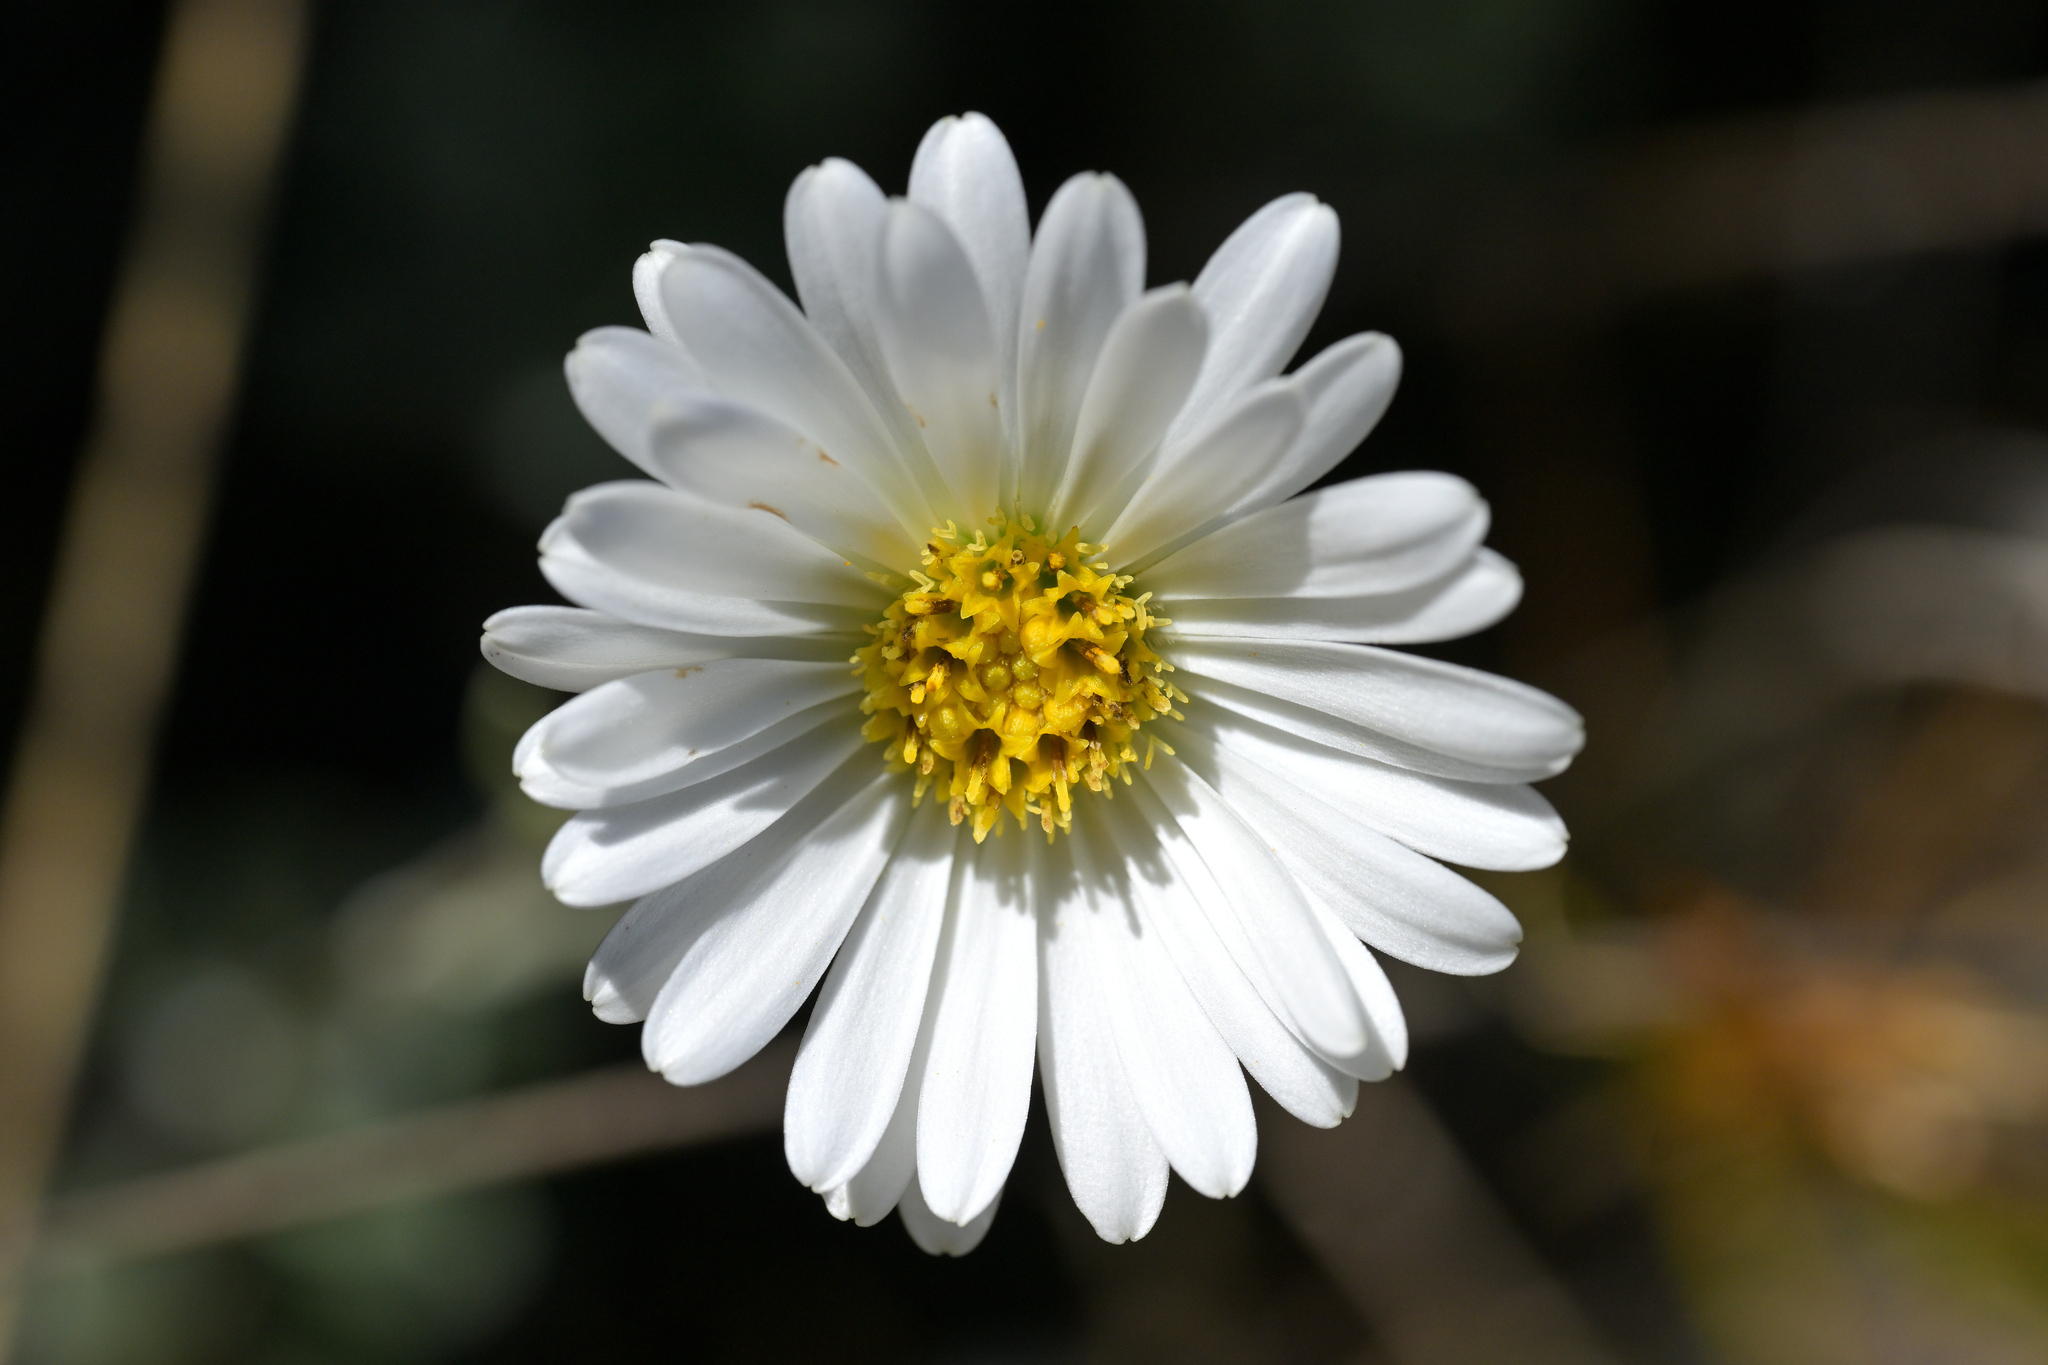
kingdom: Plantae
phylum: Tracheophyta
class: Magnoliopsida
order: Asterales
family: Asteraceae
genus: Celmisia
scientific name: Celmisia discolor
